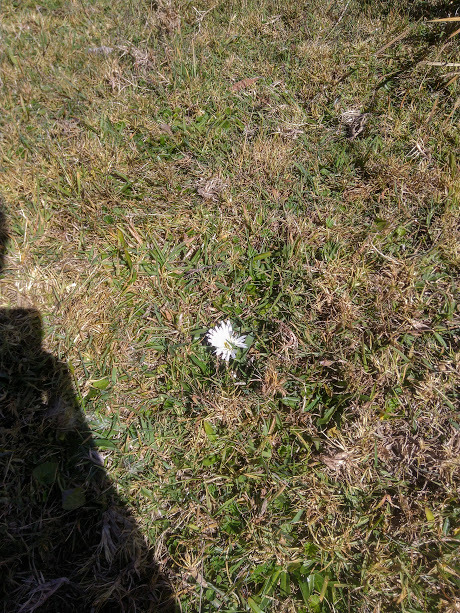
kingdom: Plantae
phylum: Tracheophyta
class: Magnoliopsida
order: Asterales
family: Asteraceae
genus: Hypochaeris
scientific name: Hypochaeris sessiliflora
